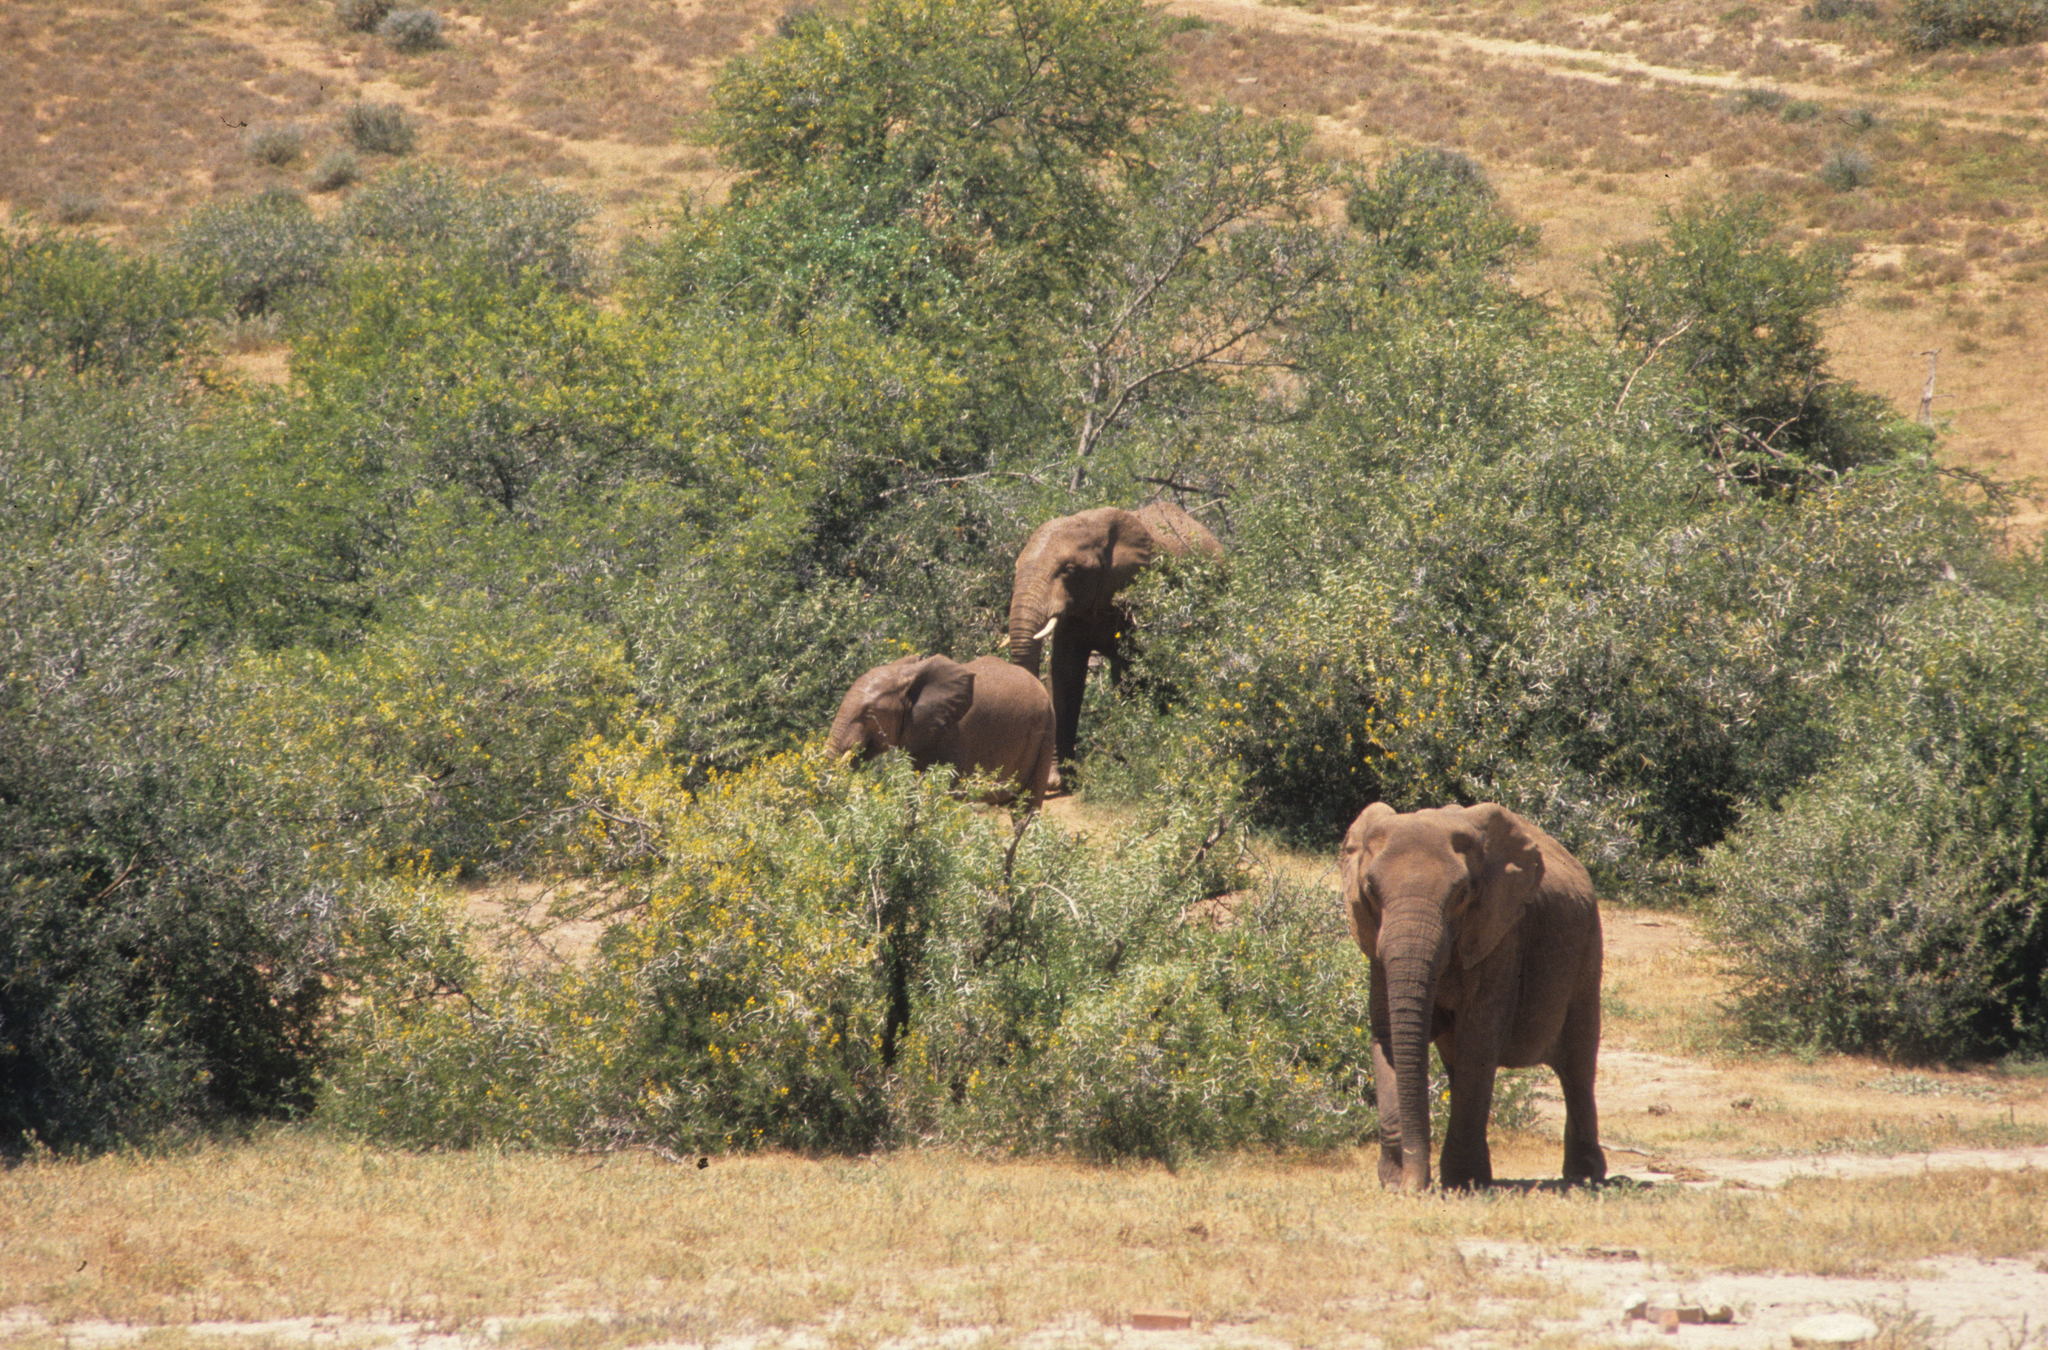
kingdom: Animalia
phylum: Chordata
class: Mammalia
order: Proboscidea
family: Elephantidae
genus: Loxodonta
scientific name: Loxodonta africana
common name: African elephant
